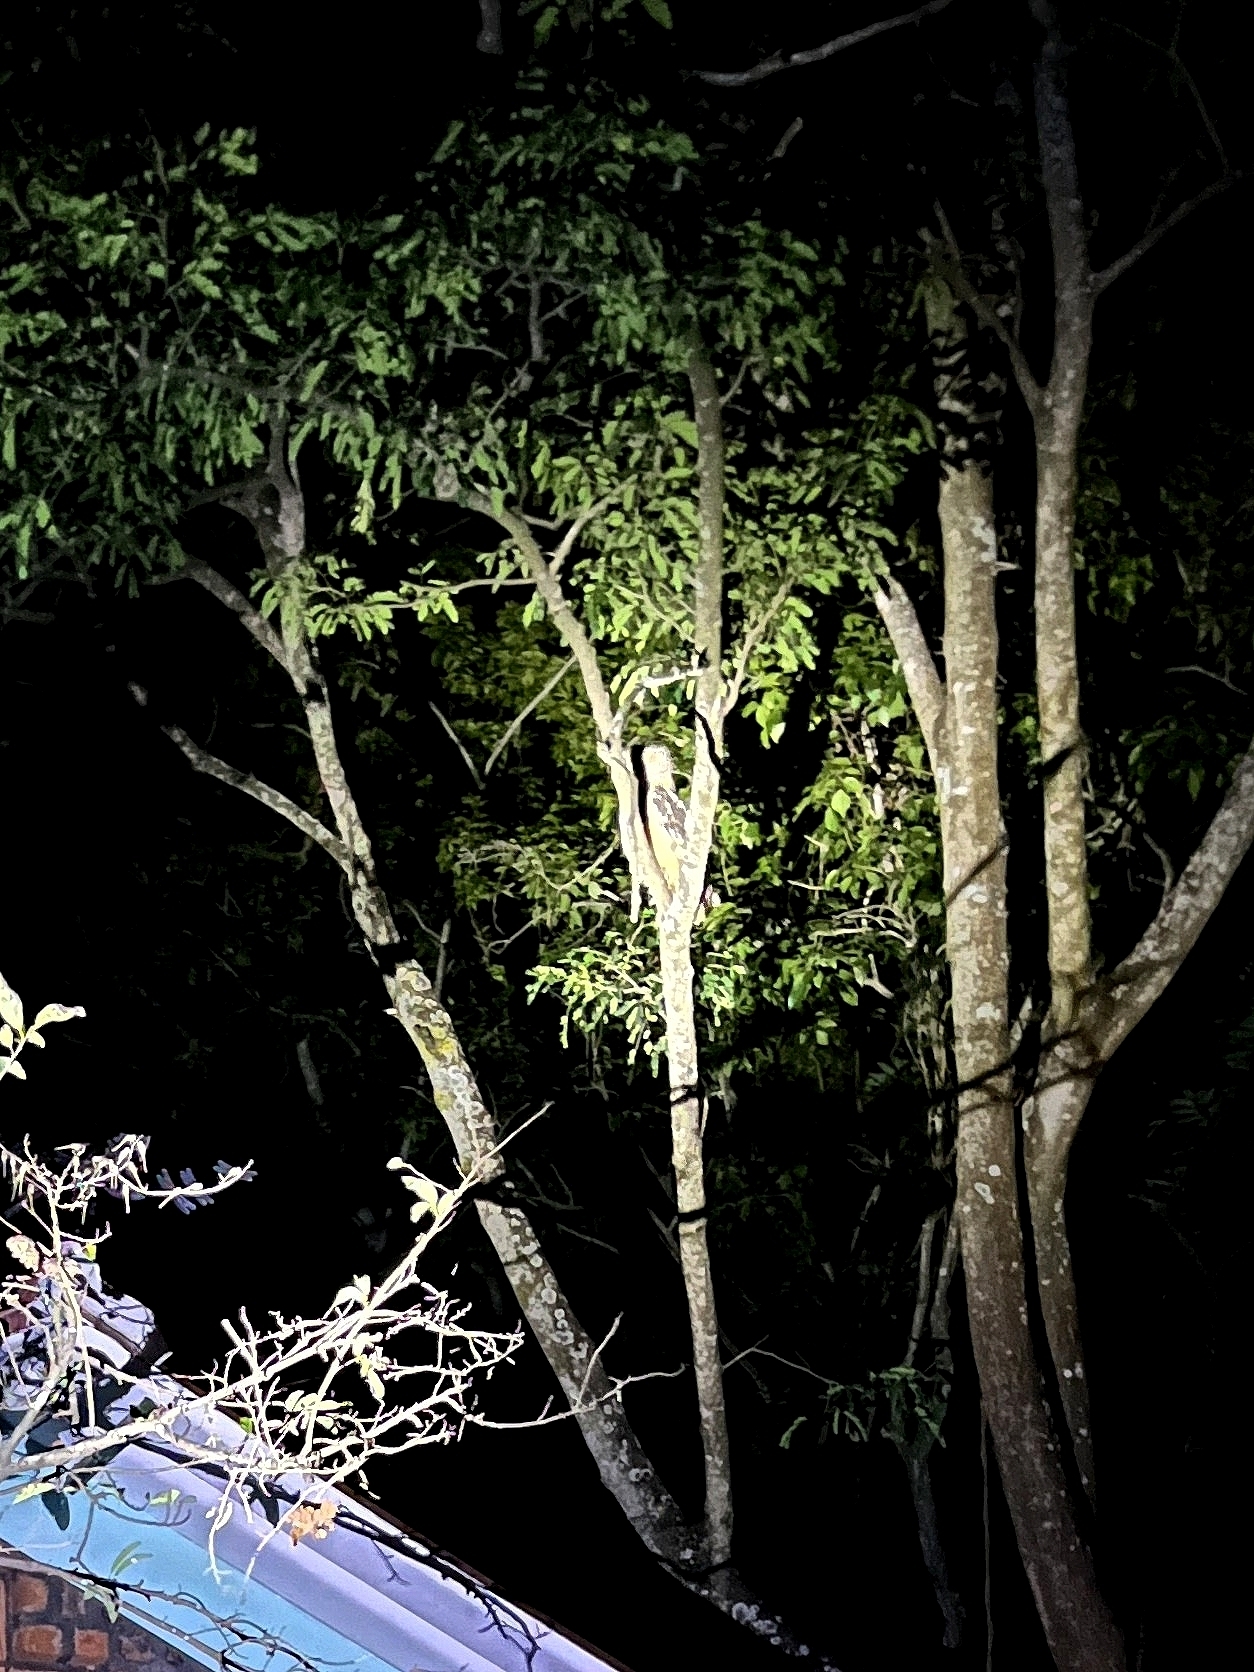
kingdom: Animalia
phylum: Chordata
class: Aves
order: Strigiformes
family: Strigidae
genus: Strix
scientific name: Strix ocellata
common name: Mottled wood owl
